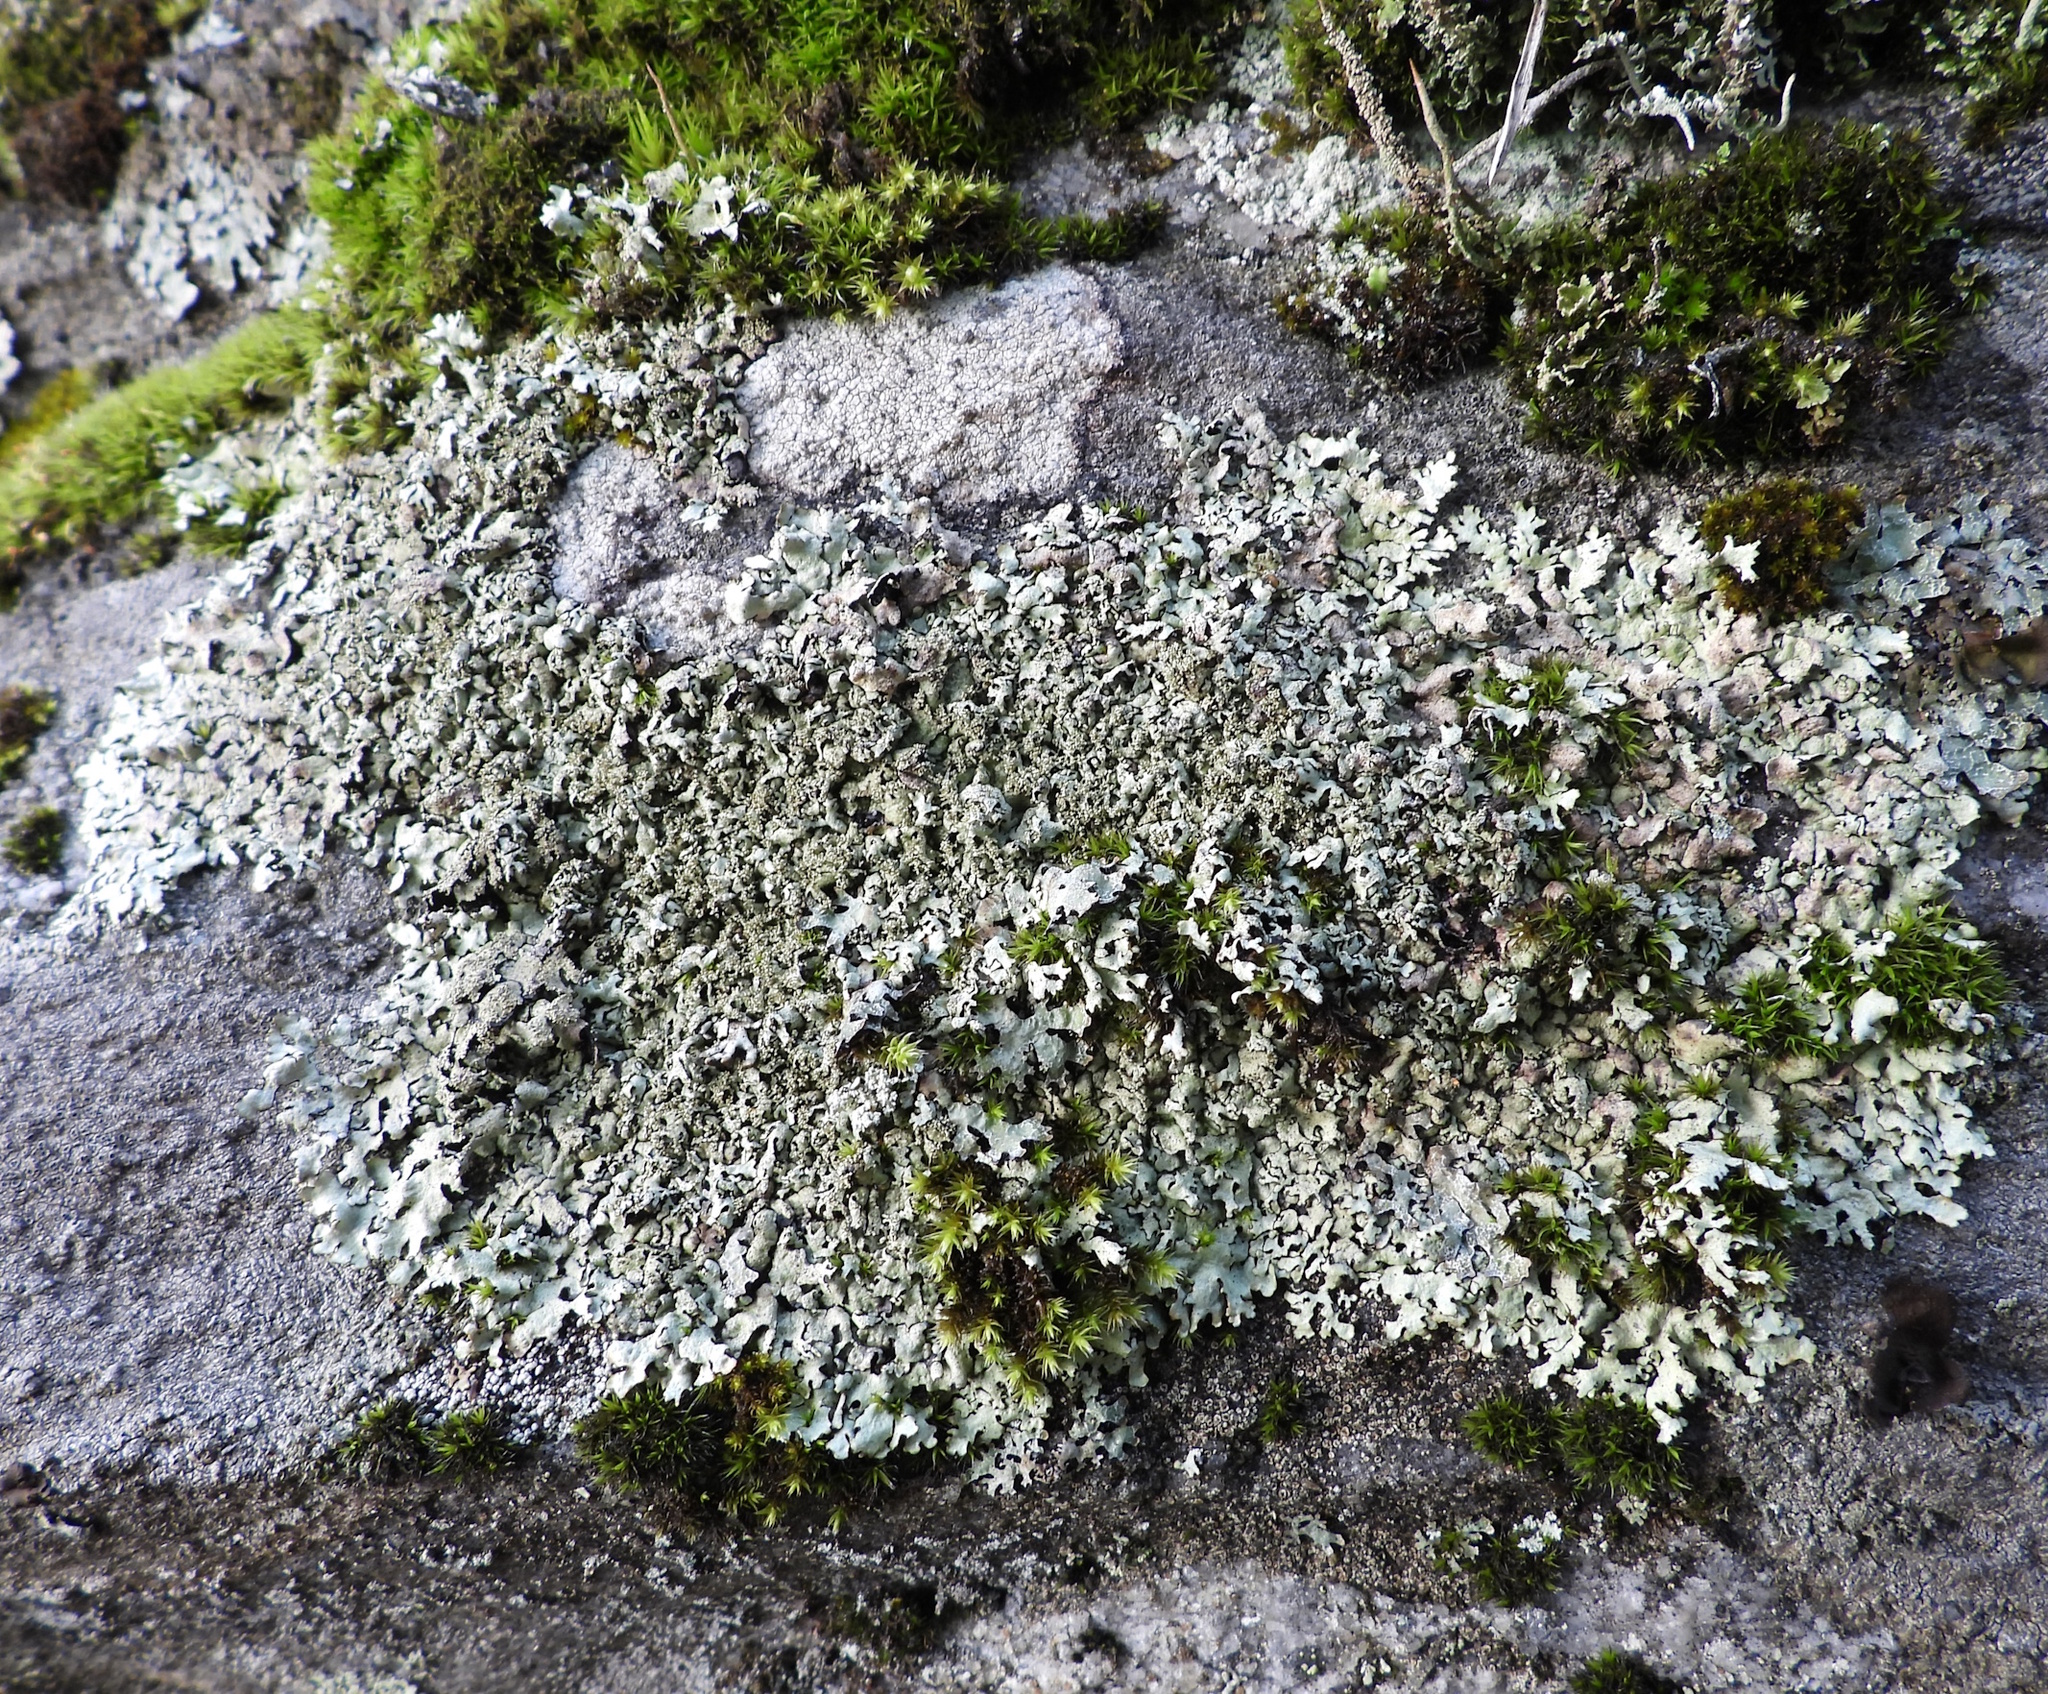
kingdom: Fungi
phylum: Ascomycota
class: Lecanoromycetes
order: Lecanorales
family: Parmeliaceae
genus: Xanthoparmelia
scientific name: Xanthoparmelia conspersa
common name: Peppered rock shield
